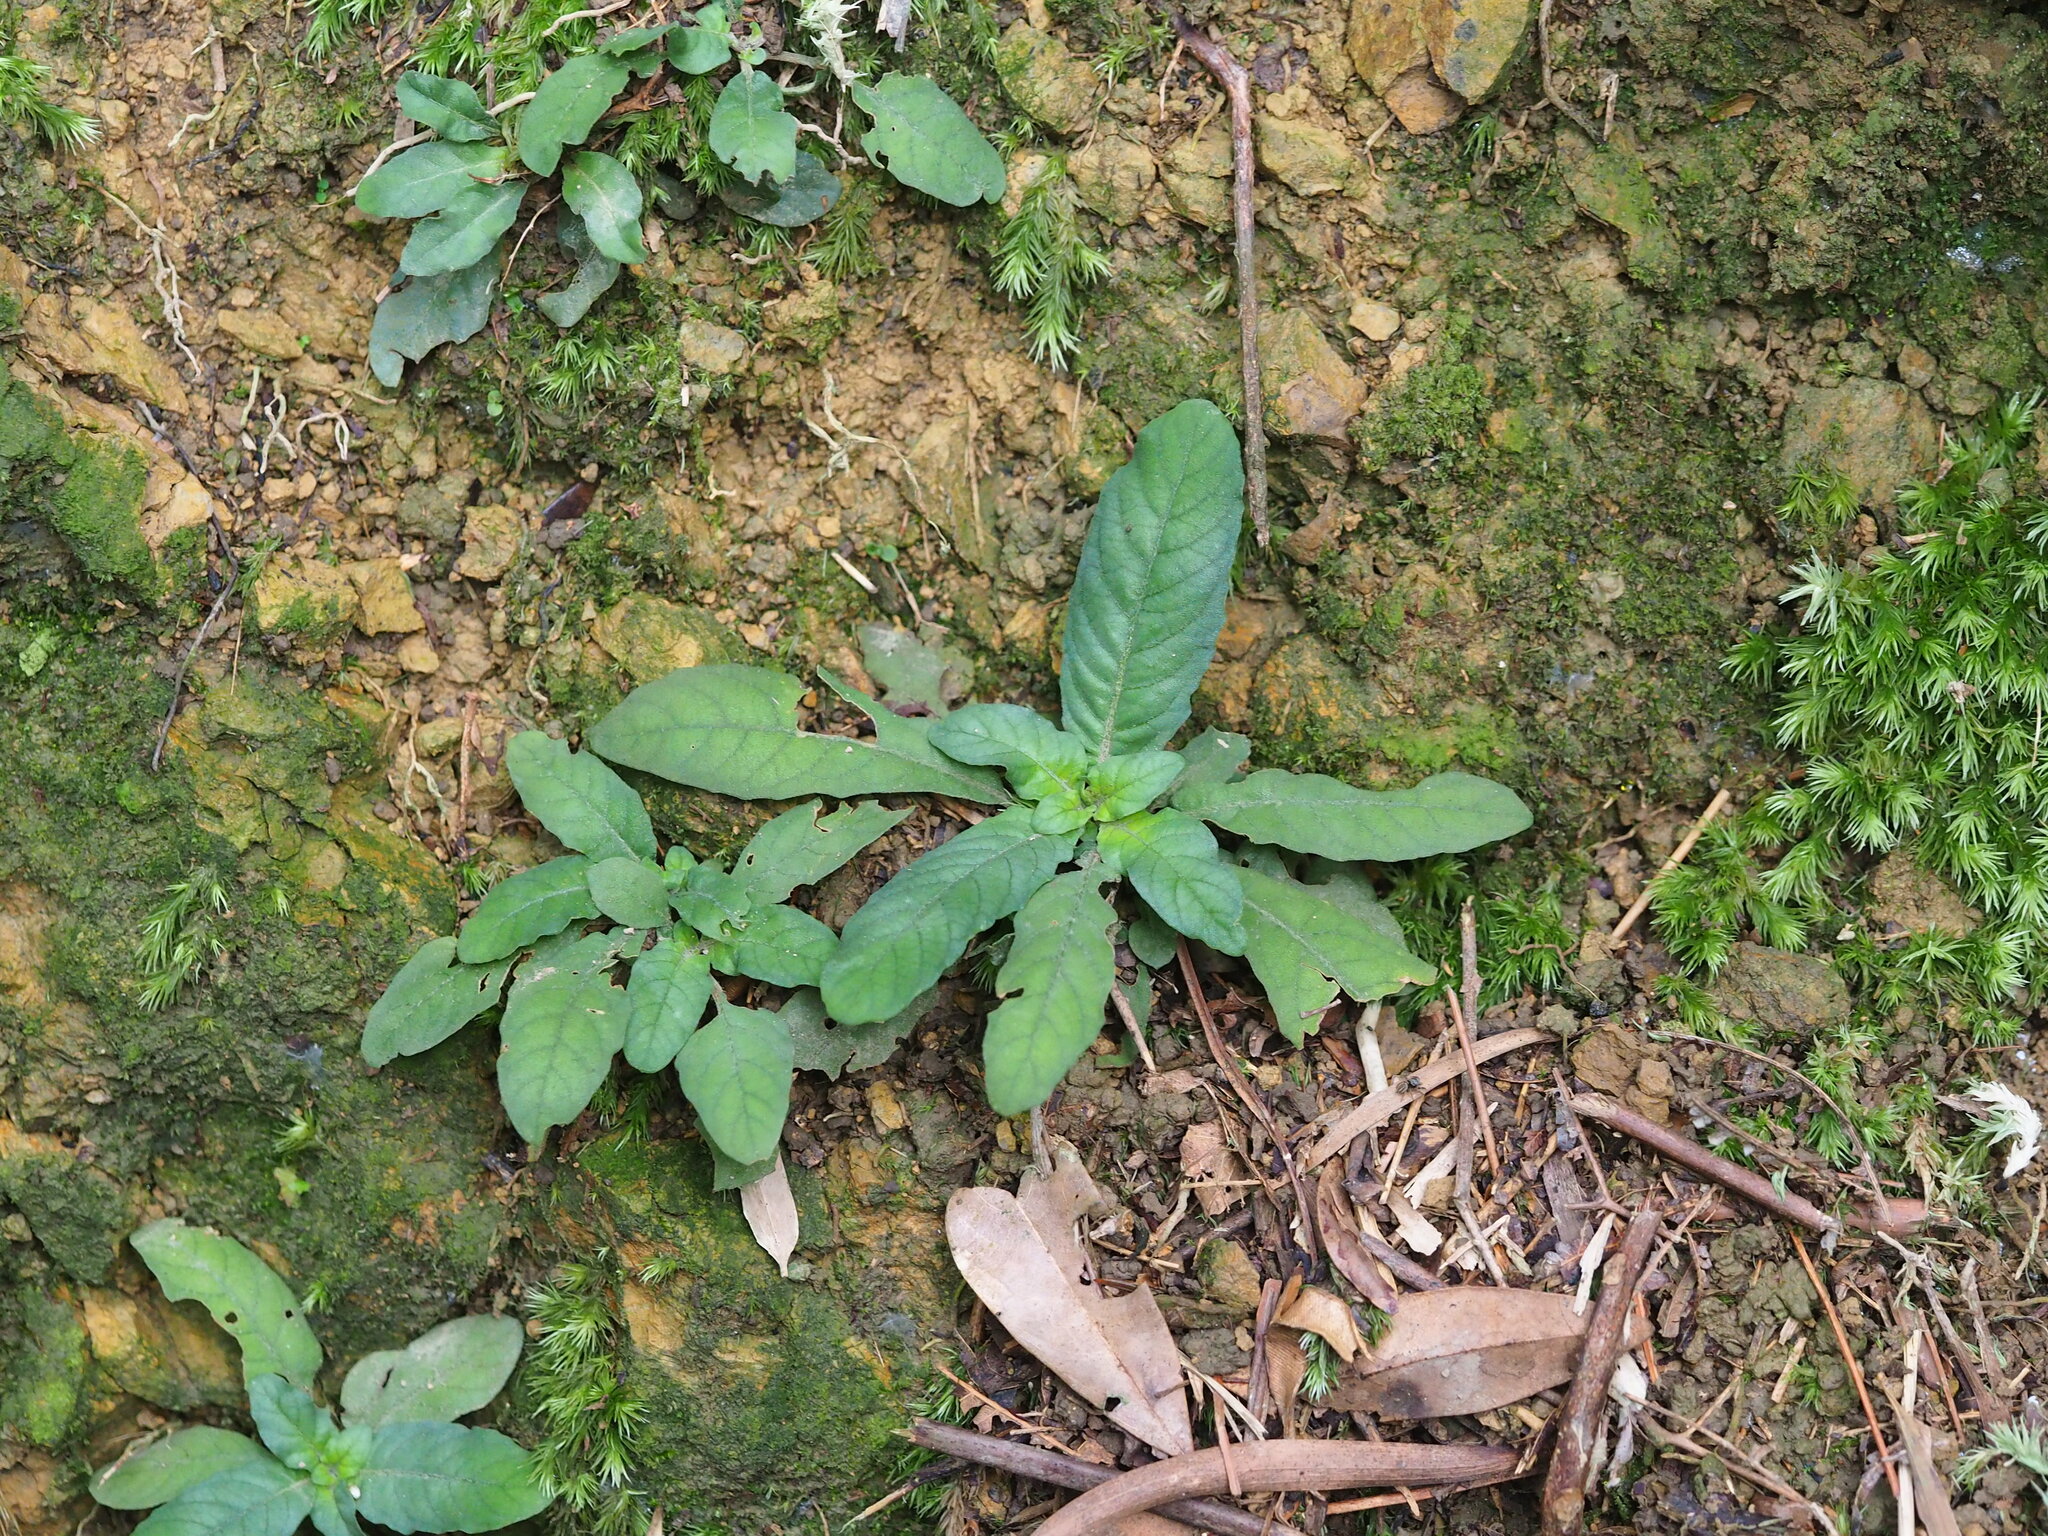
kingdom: Plantae
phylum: Tracheophyta
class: Magnoliopsida
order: Lamiales
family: Acanthaceae
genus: Staurogyne
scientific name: Staurogyne concinnula
